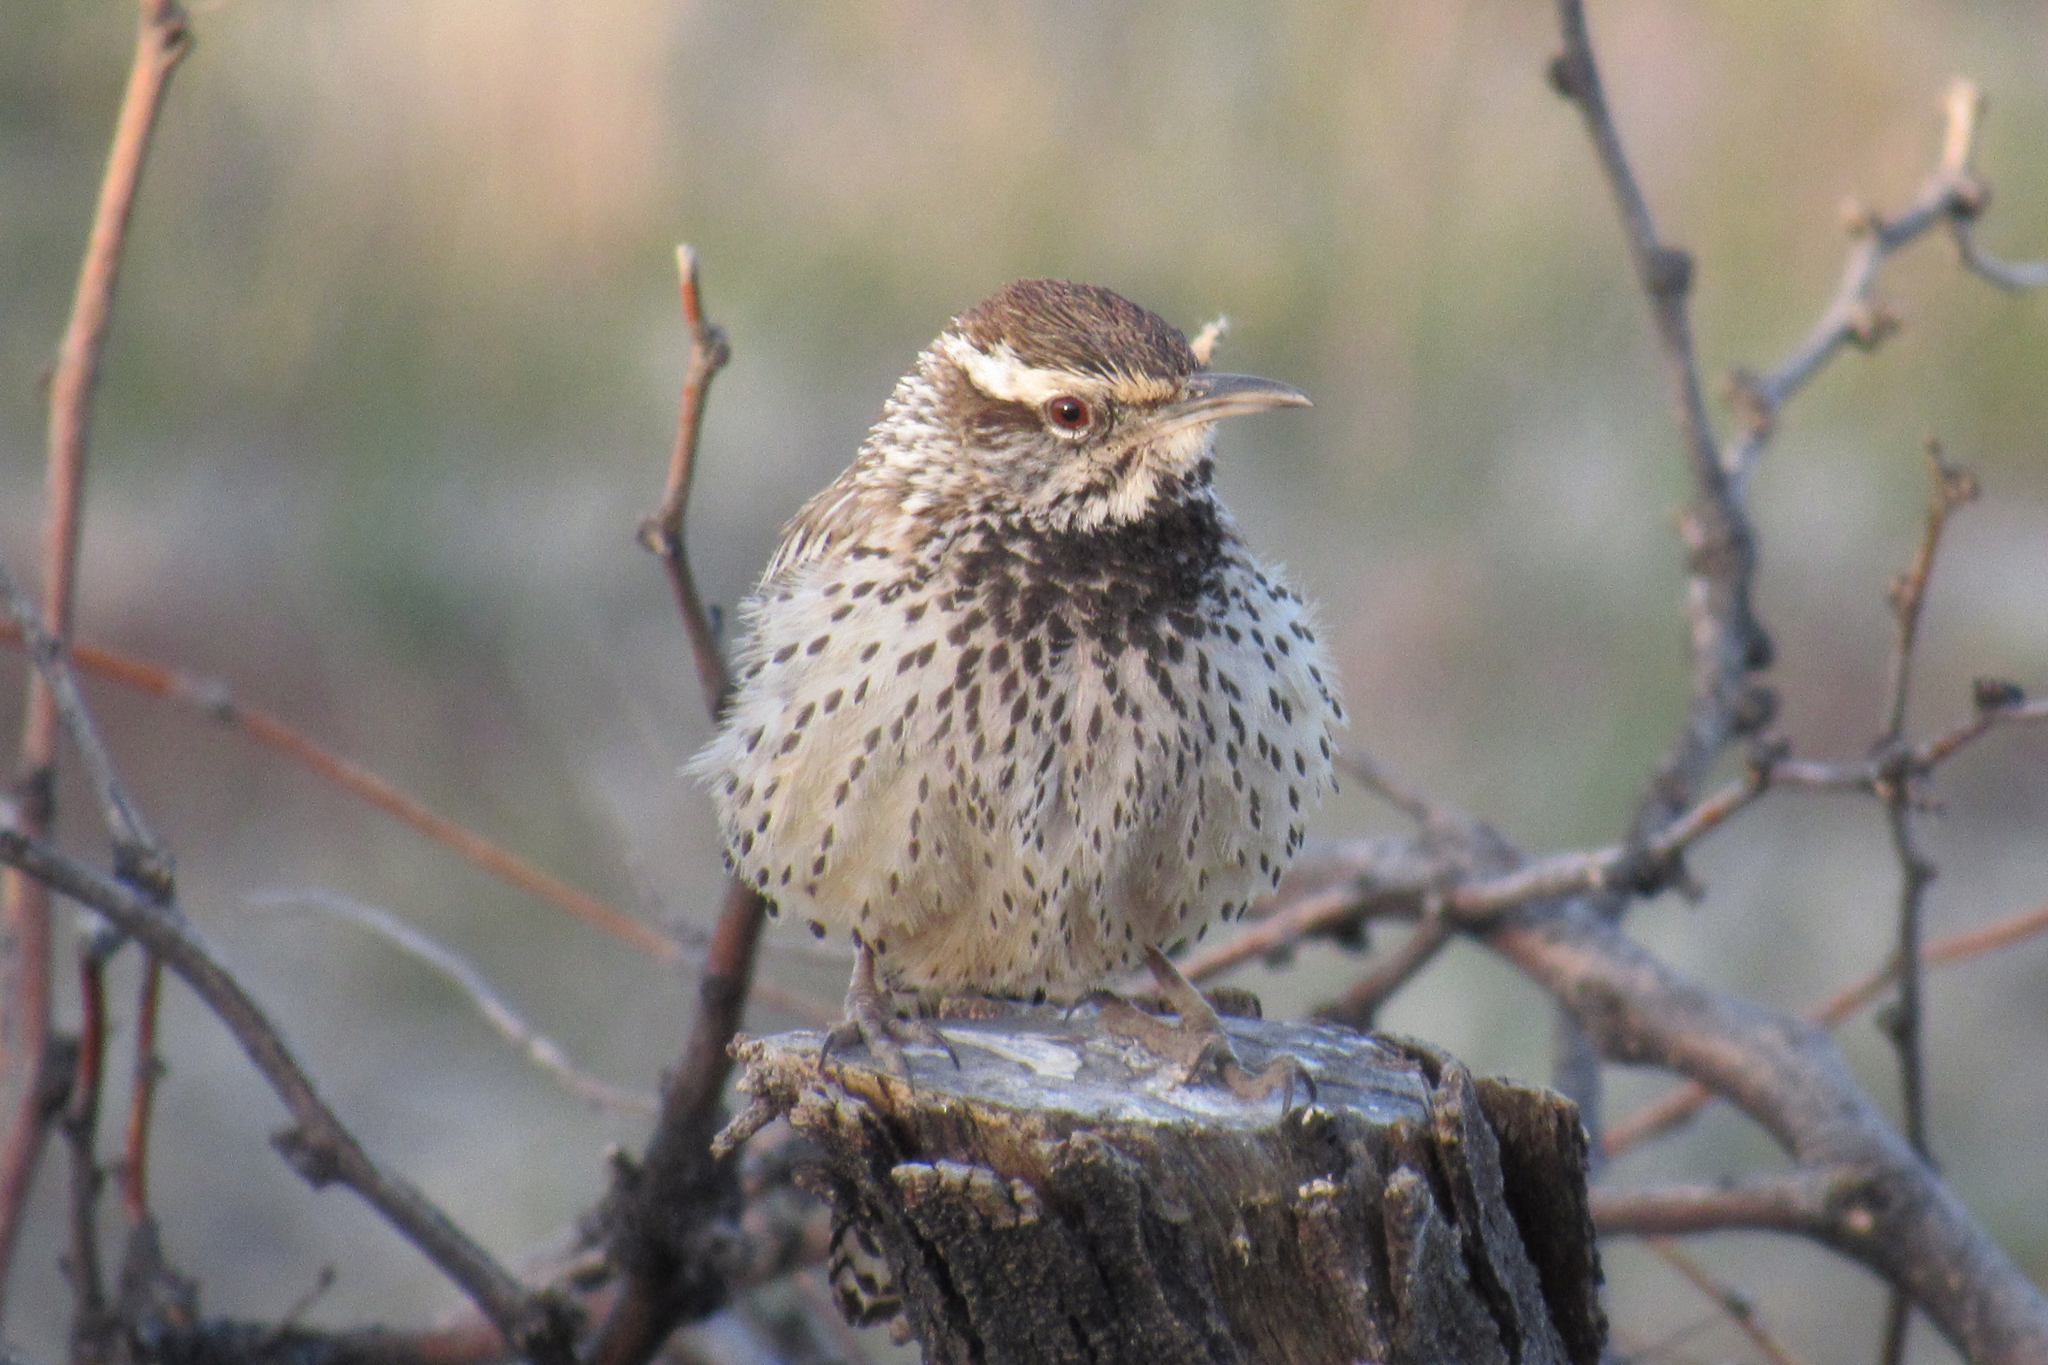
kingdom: Animalia
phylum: Chordata
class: Aves
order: Passeriformes
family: Troglodytidae
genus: Campylorhynchus
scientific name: Campylorhynchus brunneicapillus
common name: Cactus wren
